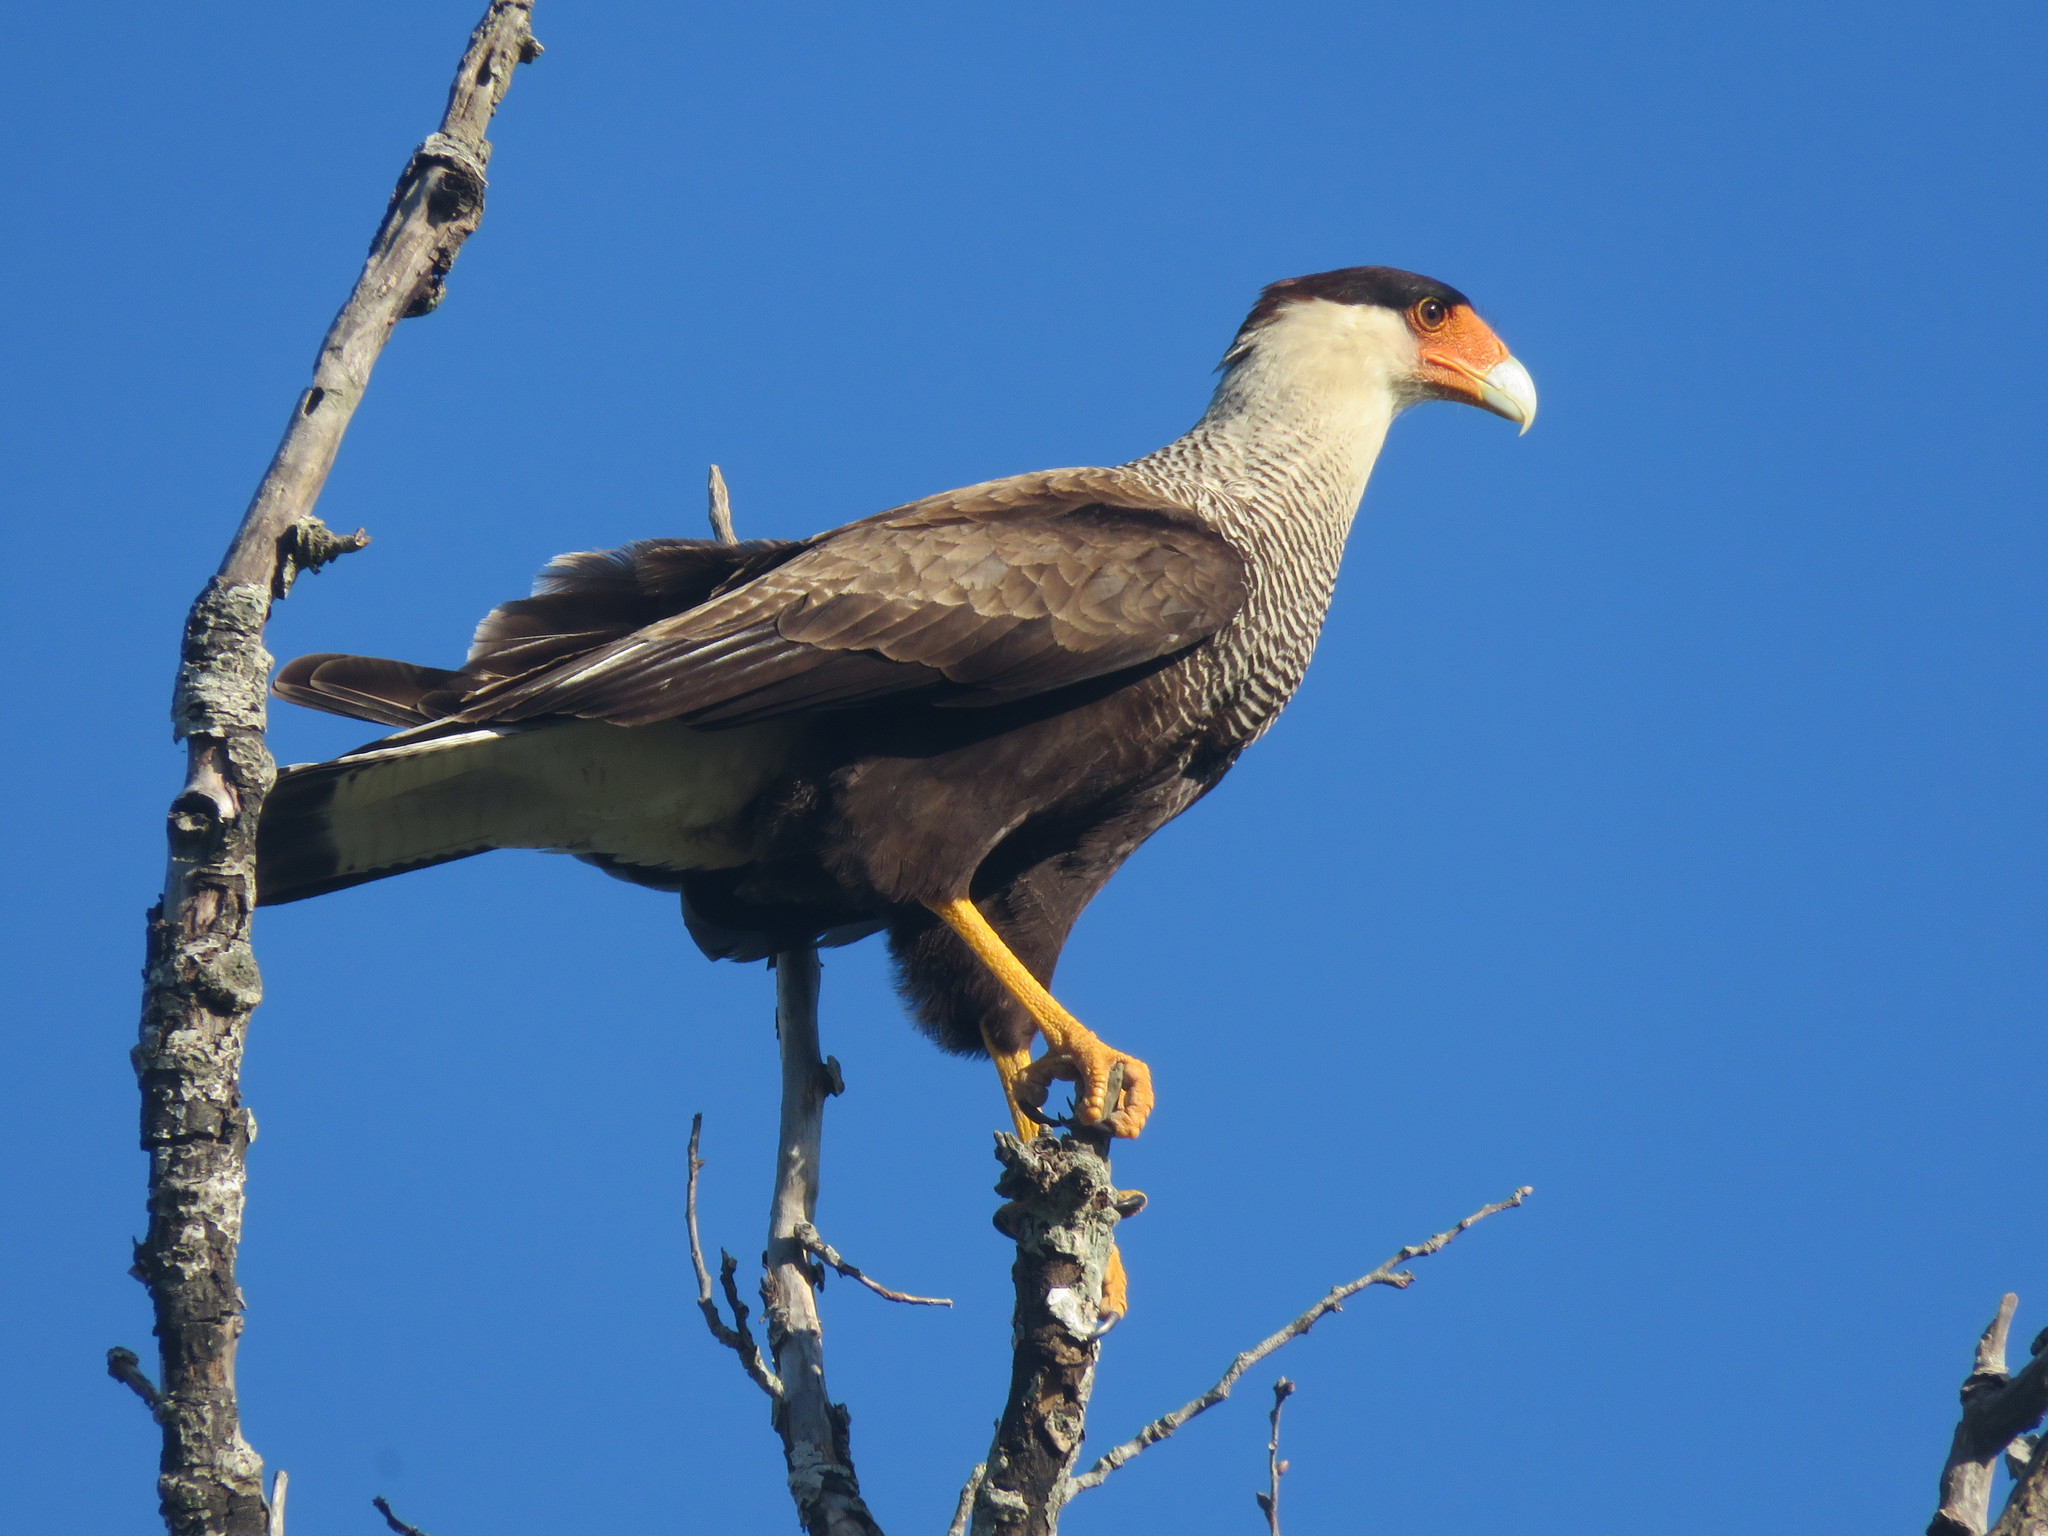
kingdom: Animalia
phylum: Chordata
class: Aves
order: Falconiformes
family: Falconidae
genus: Caracara
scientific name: Caracara plancus
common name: Southern caracara
